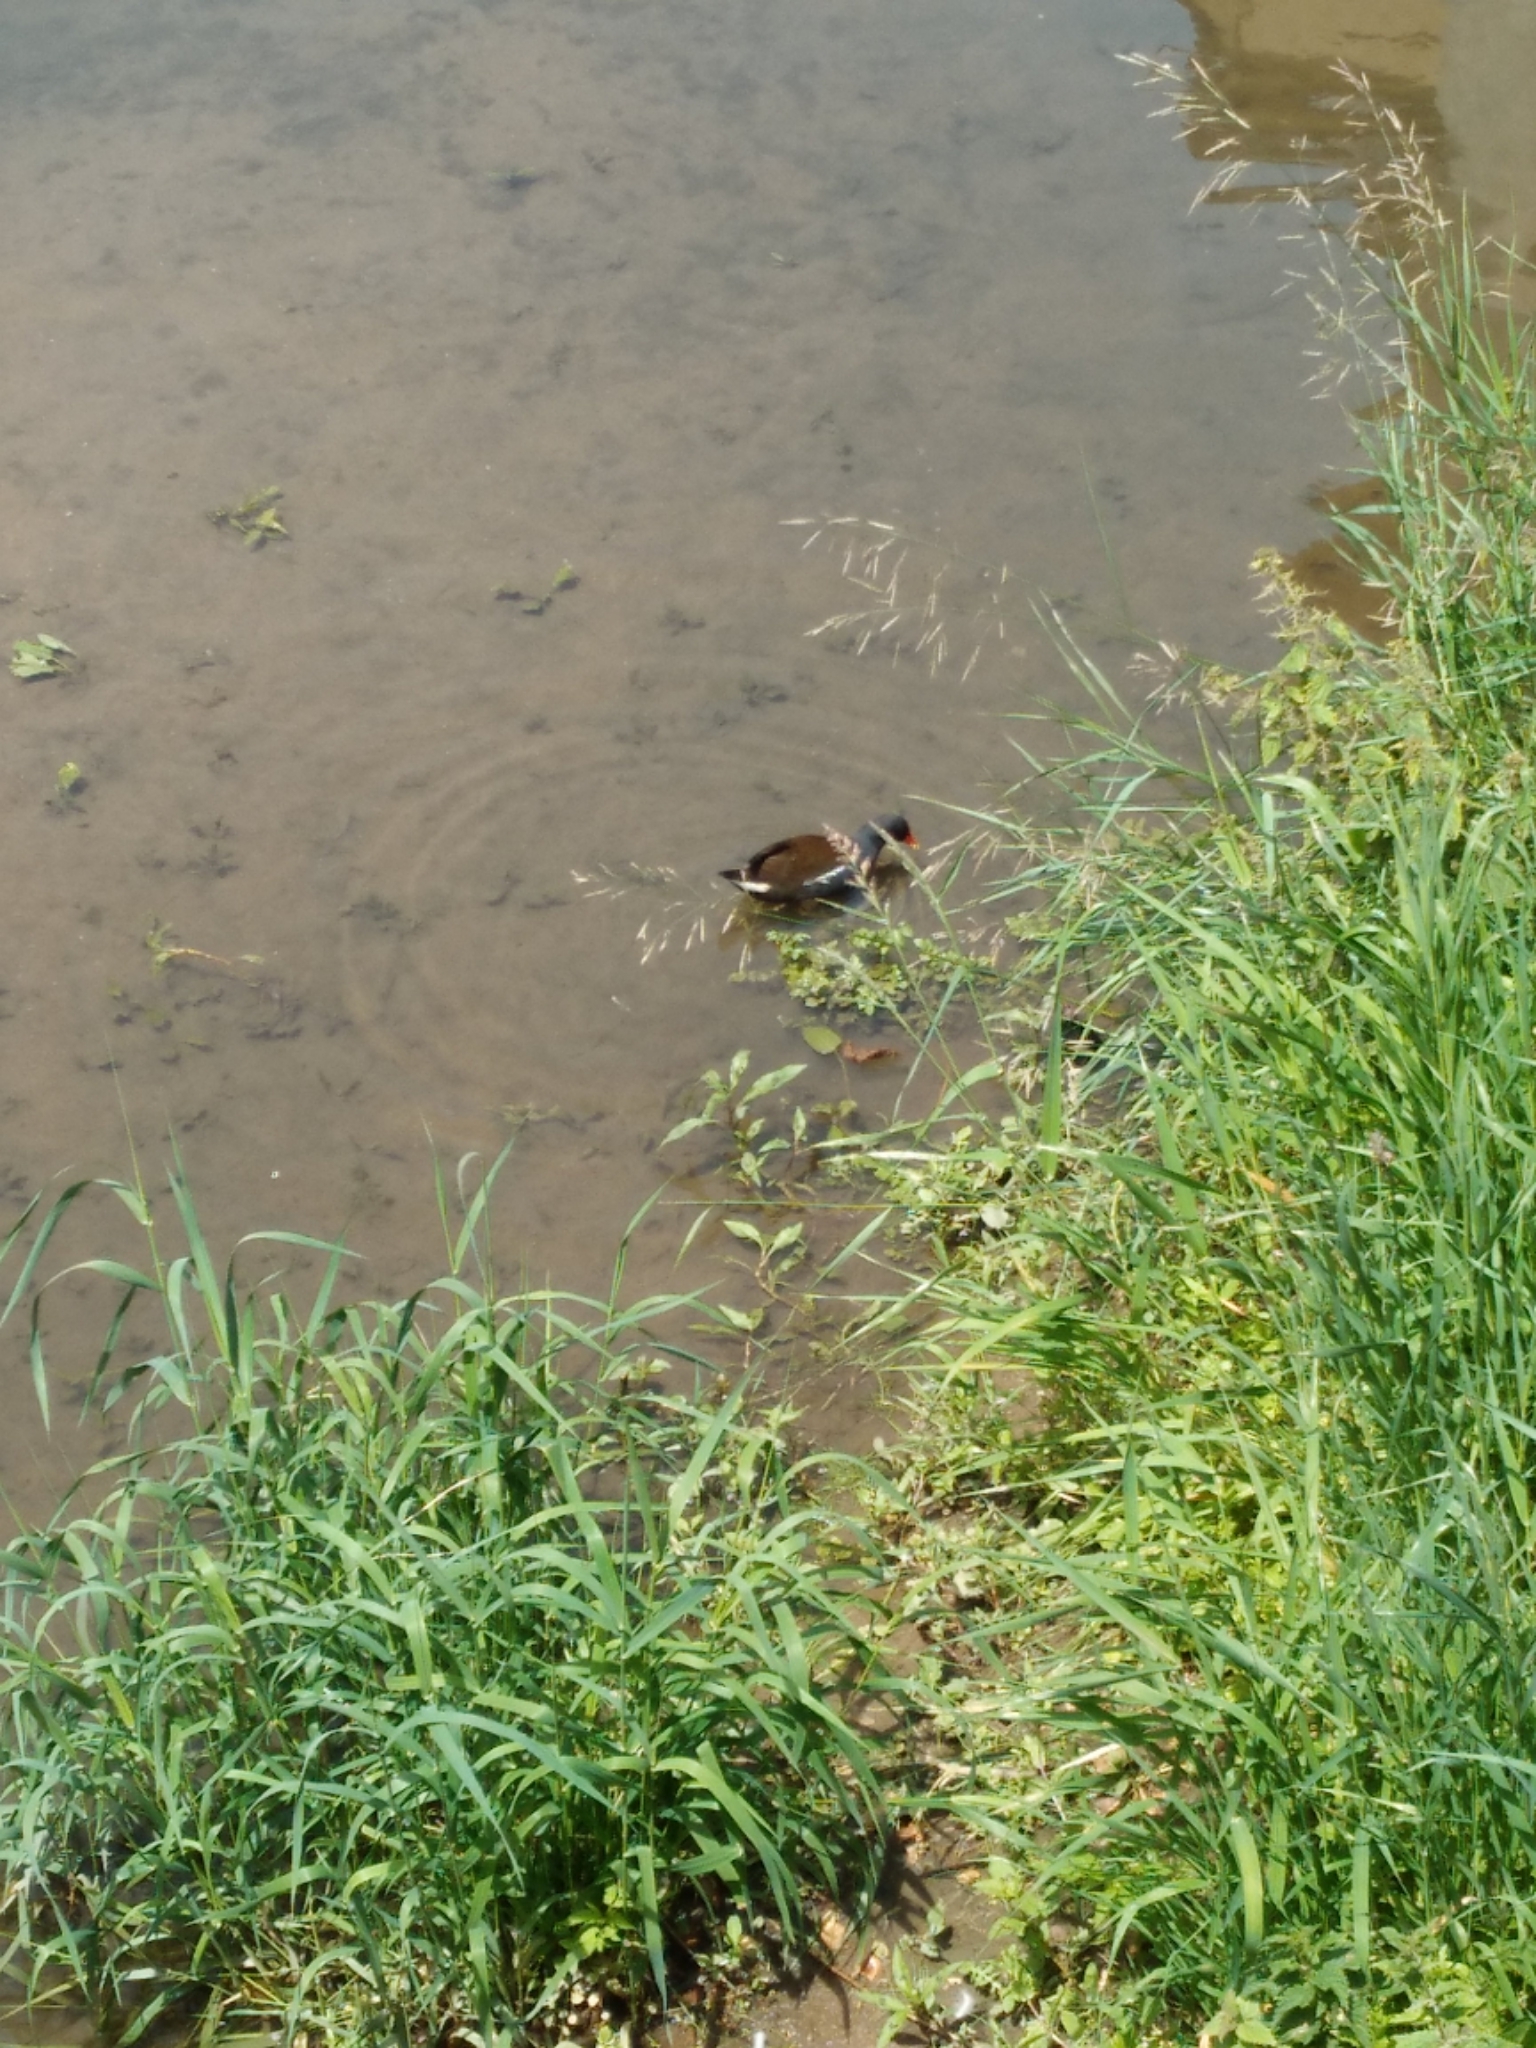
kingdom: Animalia
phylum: Chordata
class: Aves
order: Gruiformes
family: Rallidae
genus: Gallinula
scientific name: Gallinula chloropus
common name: Common moorhen
